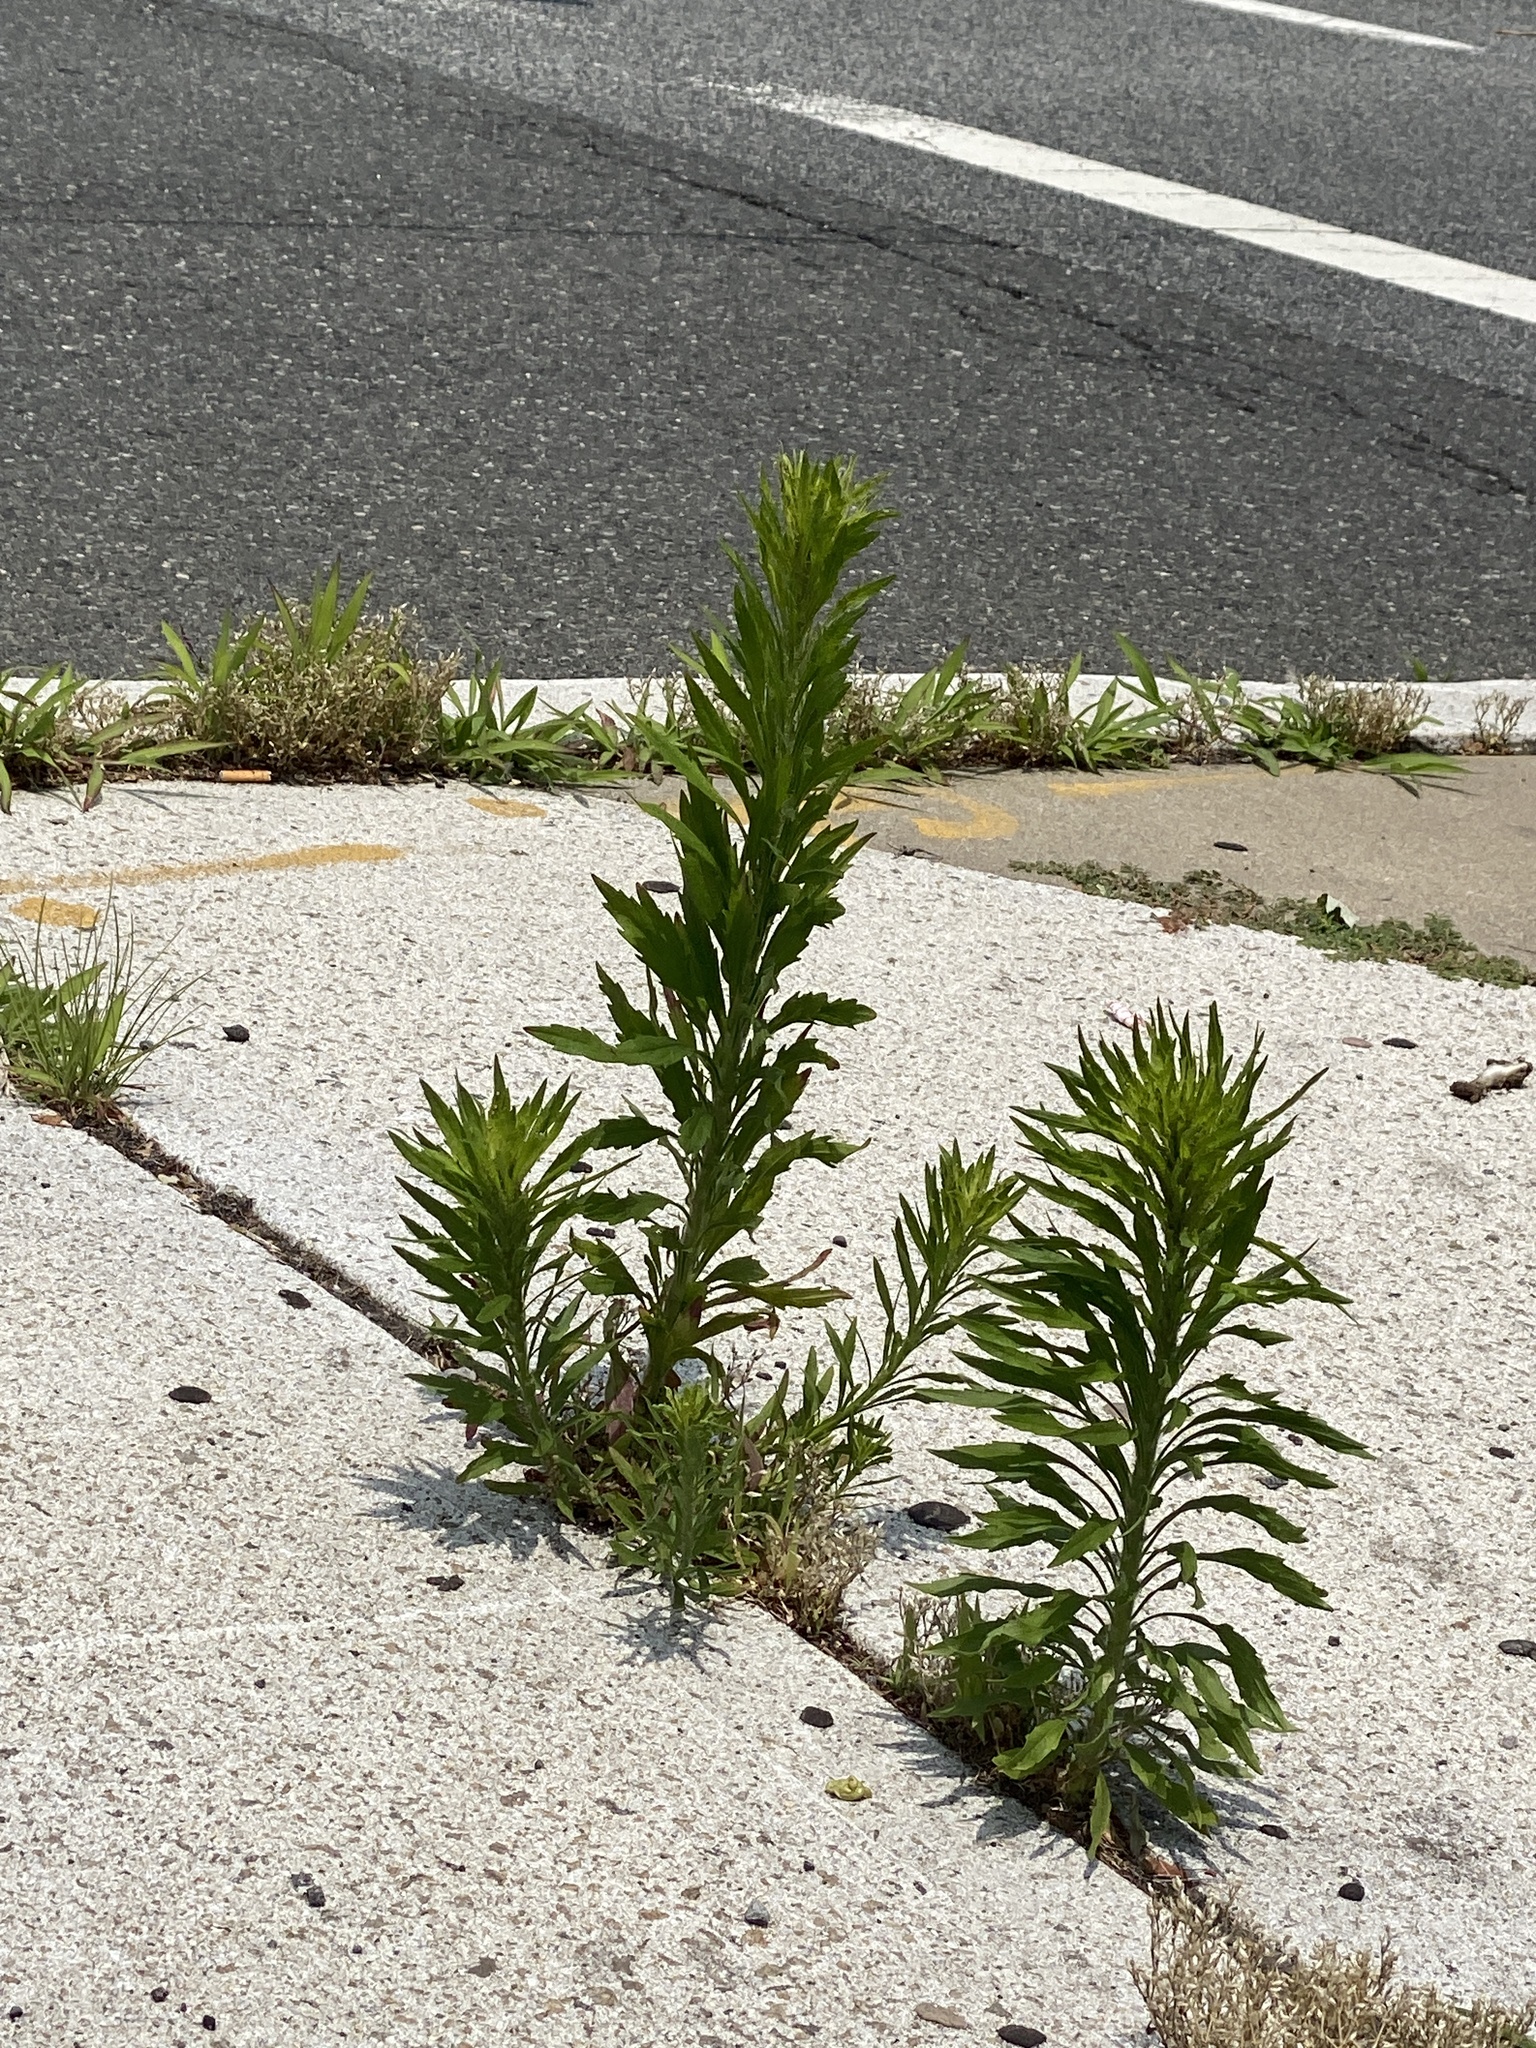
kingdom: Plantae
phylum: Tracheophyta
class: Magnoliopsida
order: Asterales
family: Asteraceae
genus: Erigeron
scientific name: Erigeron canadensis
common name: Canadian fleabane
